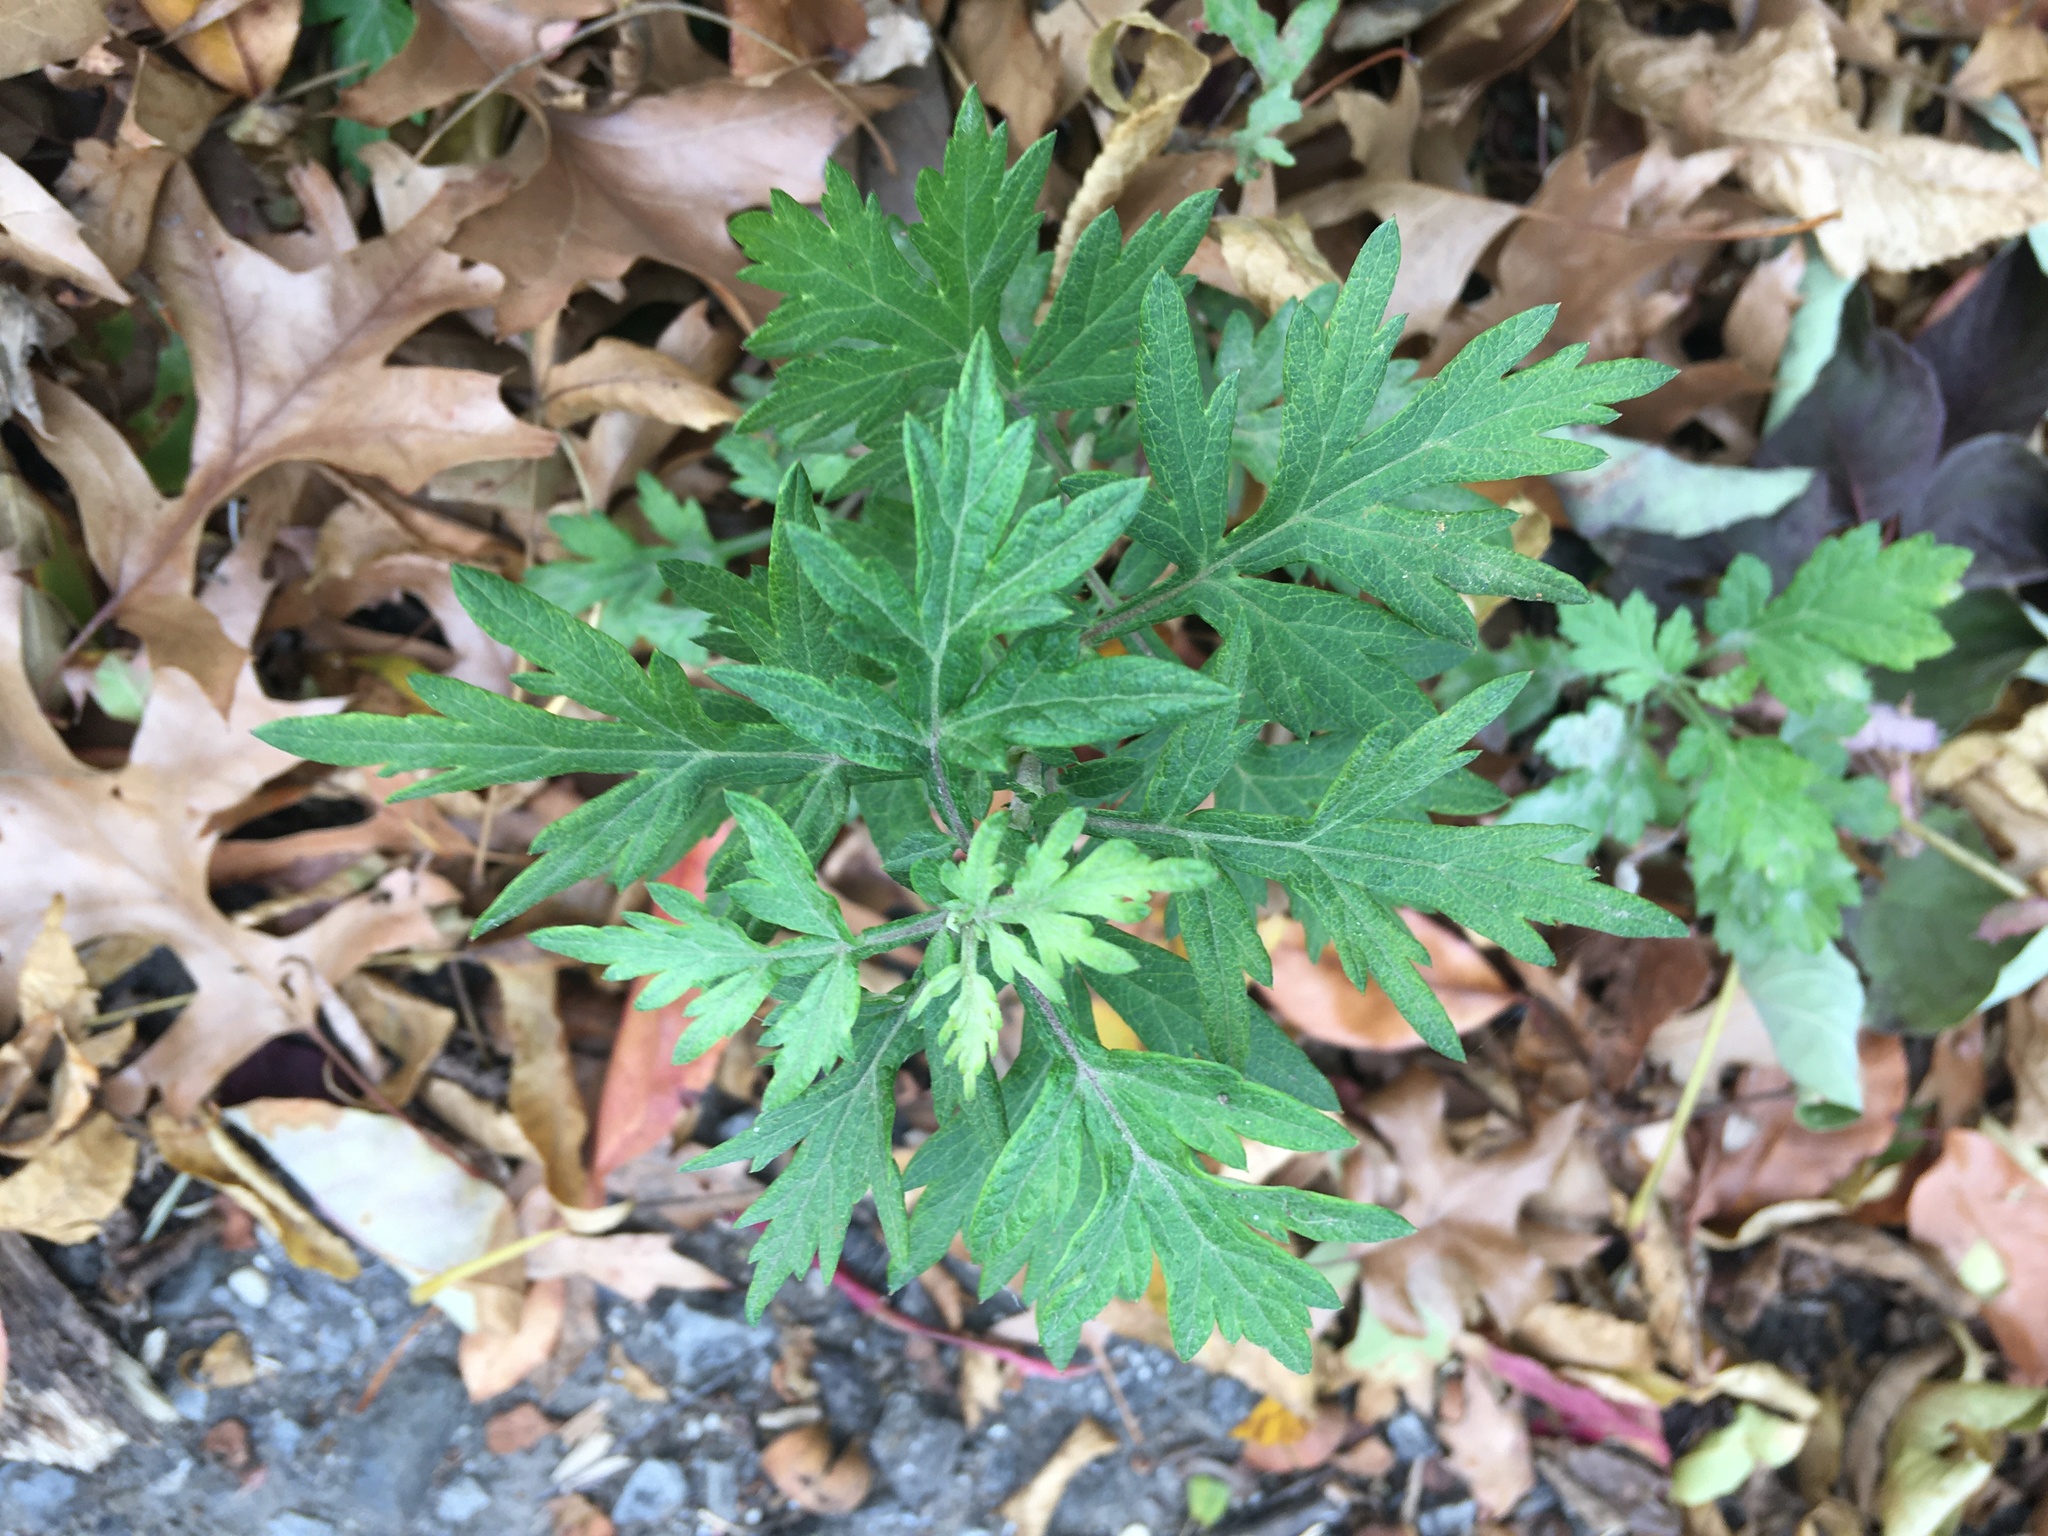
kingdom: Plantae
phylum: Tracheophyta
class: Magnoliopsida
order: Asterales
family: Asteraceae
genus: Artemisia
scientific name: Artemisia vulgaris
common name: Mugwort
